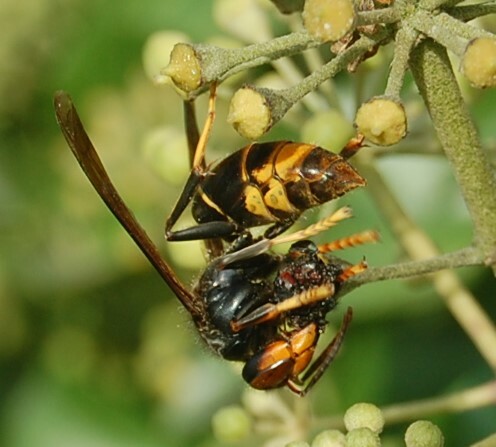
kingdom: Animalia
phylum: Arthropoda
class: Insecta
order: Hymenoptera
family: Vespidae
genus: Vespa
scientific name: Vespa velutina
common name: Asian hornet
